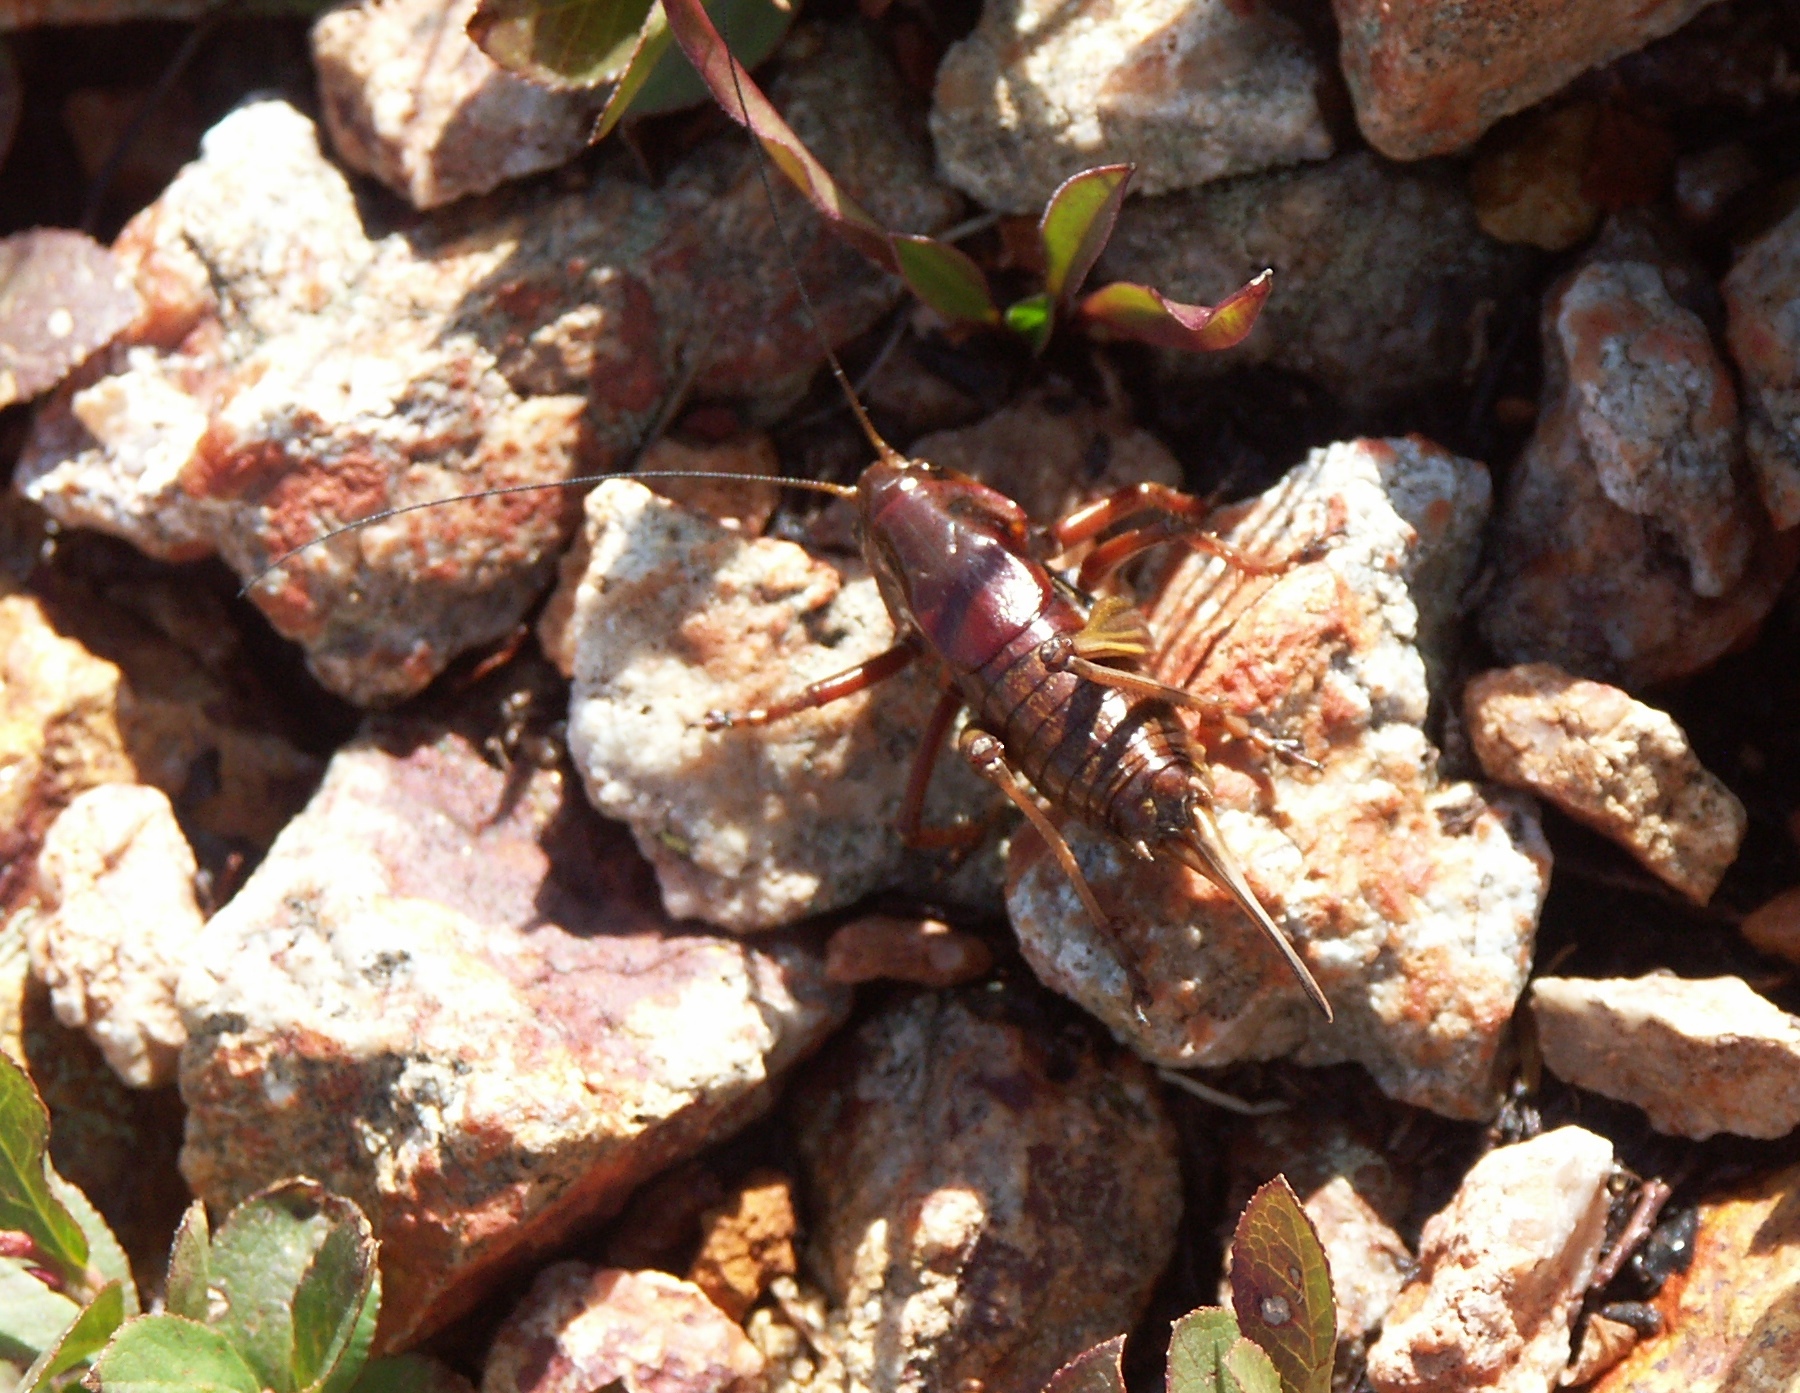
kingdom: Animalia
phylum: Arthropoda
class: Insecta
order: Orthoptera
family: Tettigoniidae
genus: Anabrus
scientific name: Anabrus simplex
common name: Mormon cricket
